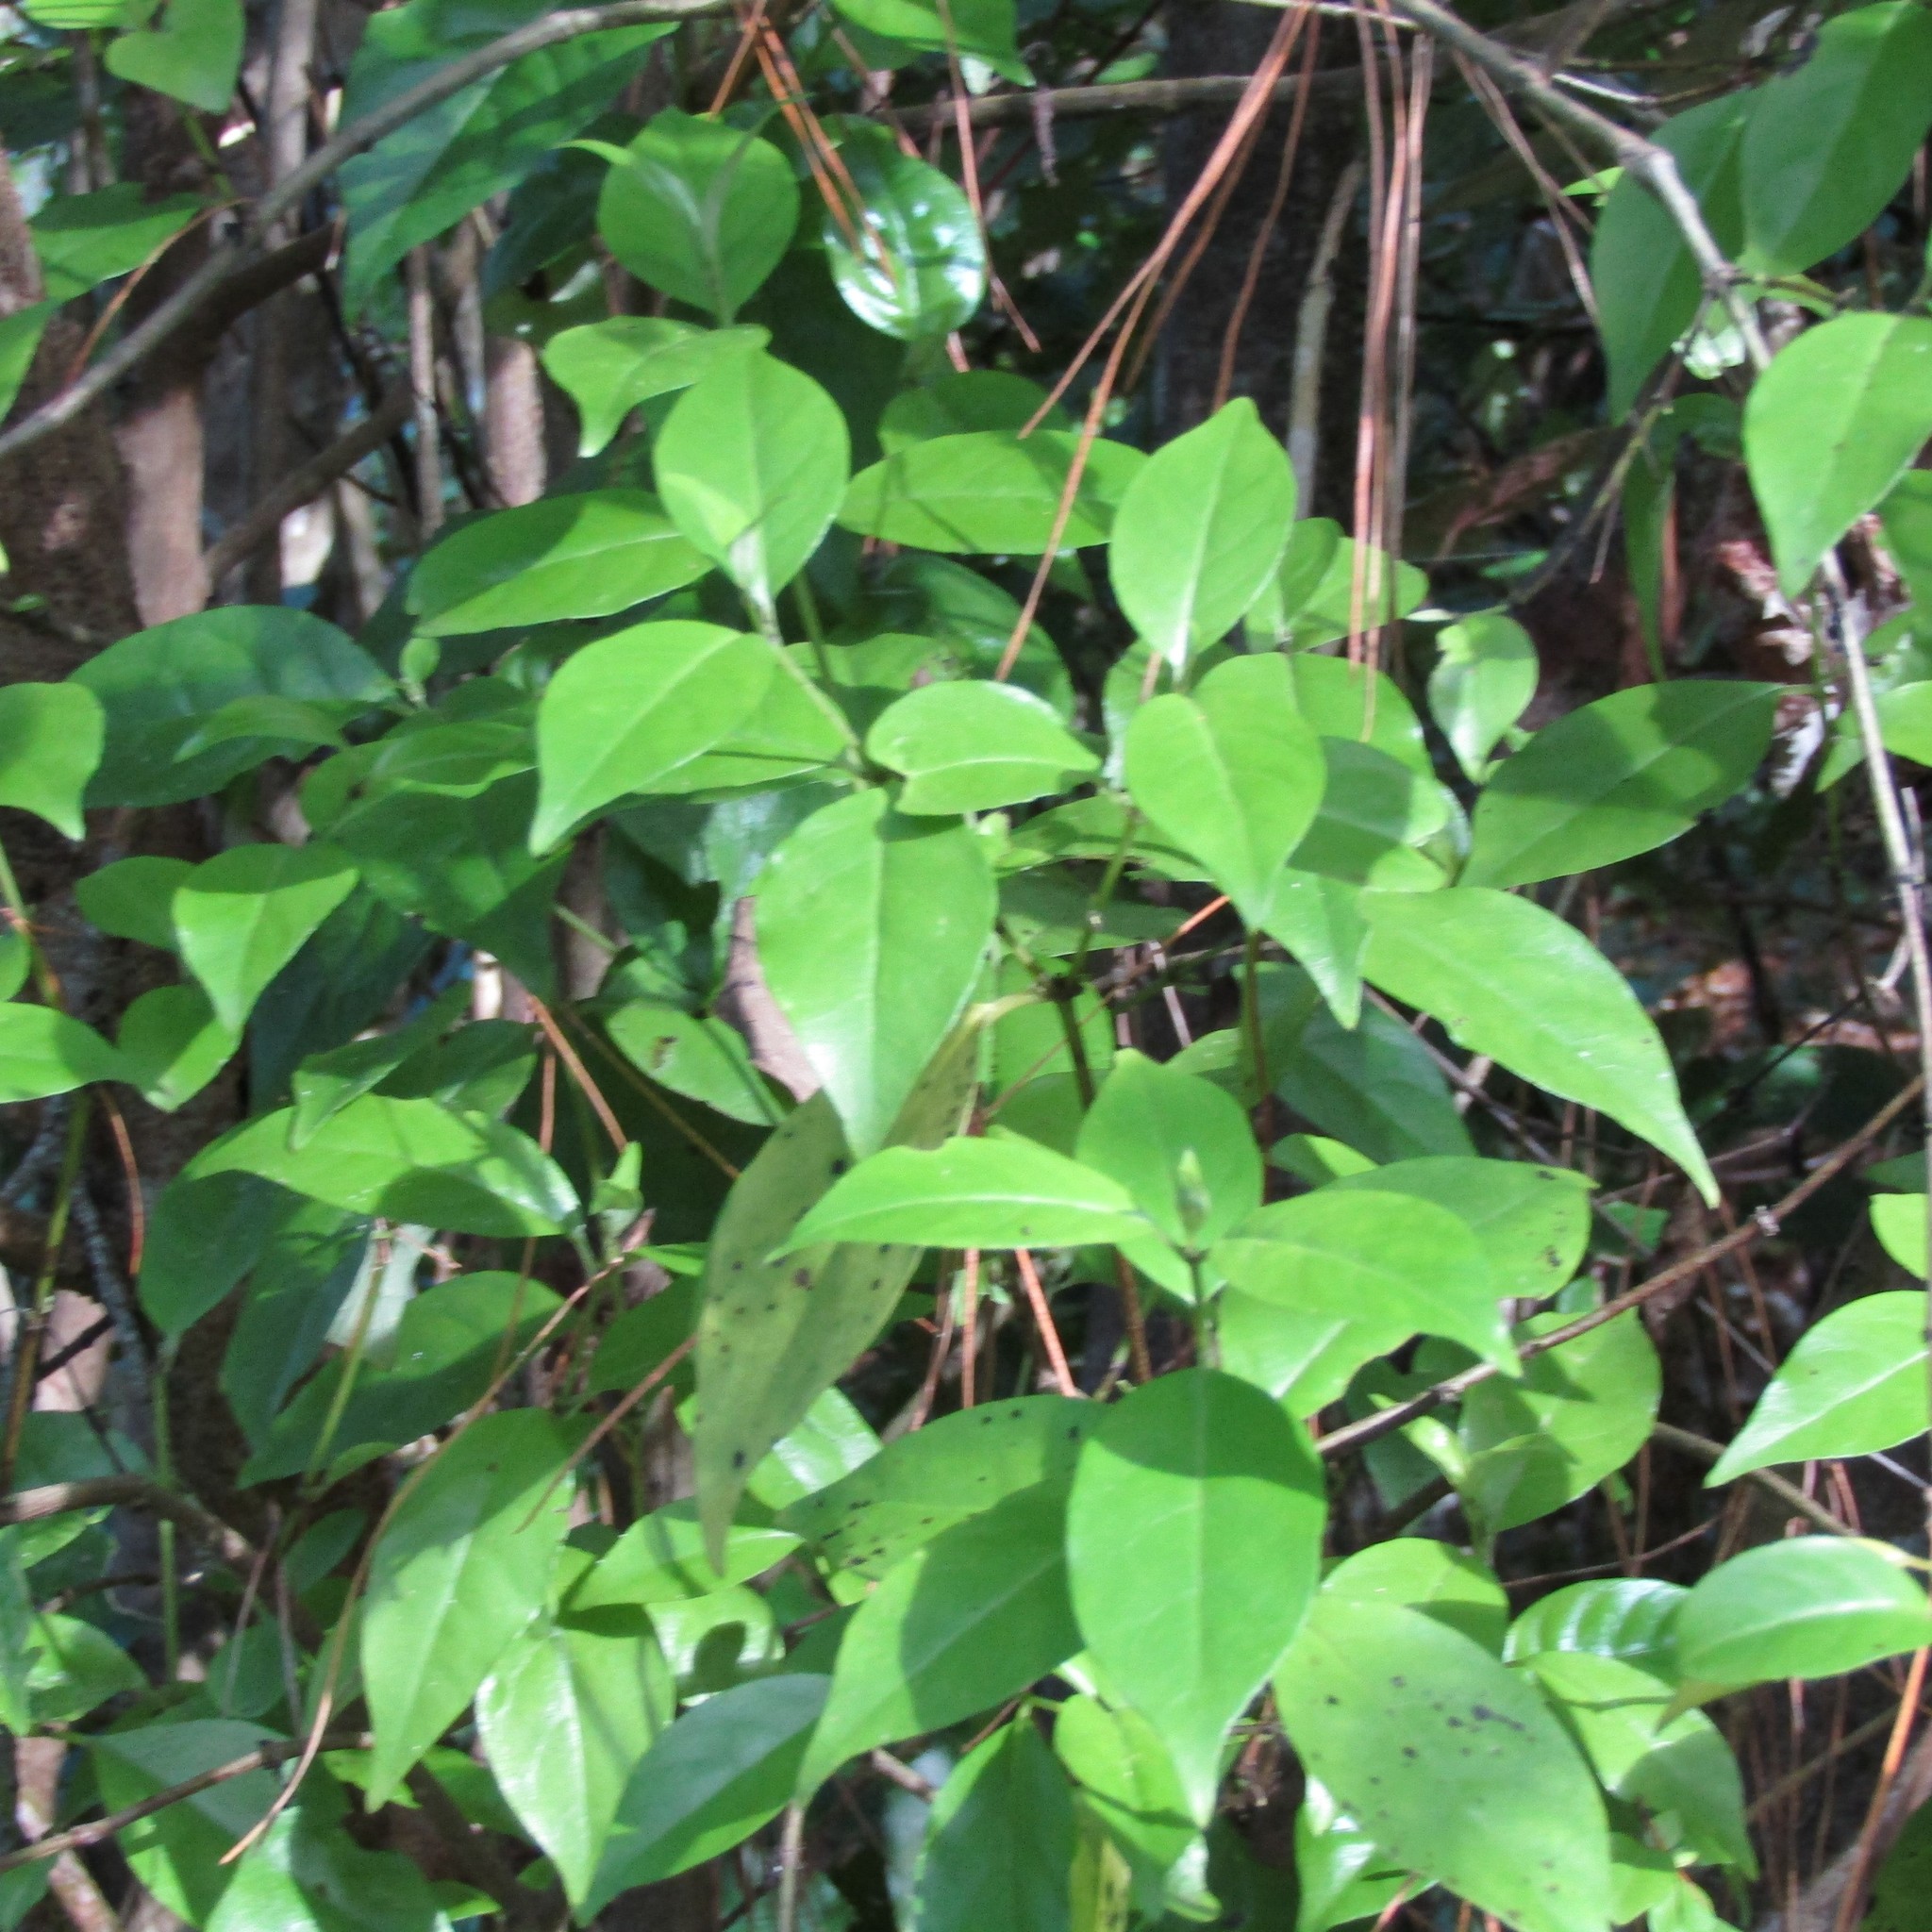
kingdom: Plantae
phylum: Tracheophyta
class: Magnoliopsida
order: Gentianales
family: Loganiaceae
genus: Geniostoma
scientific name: Geniostoma ligustrifolium
